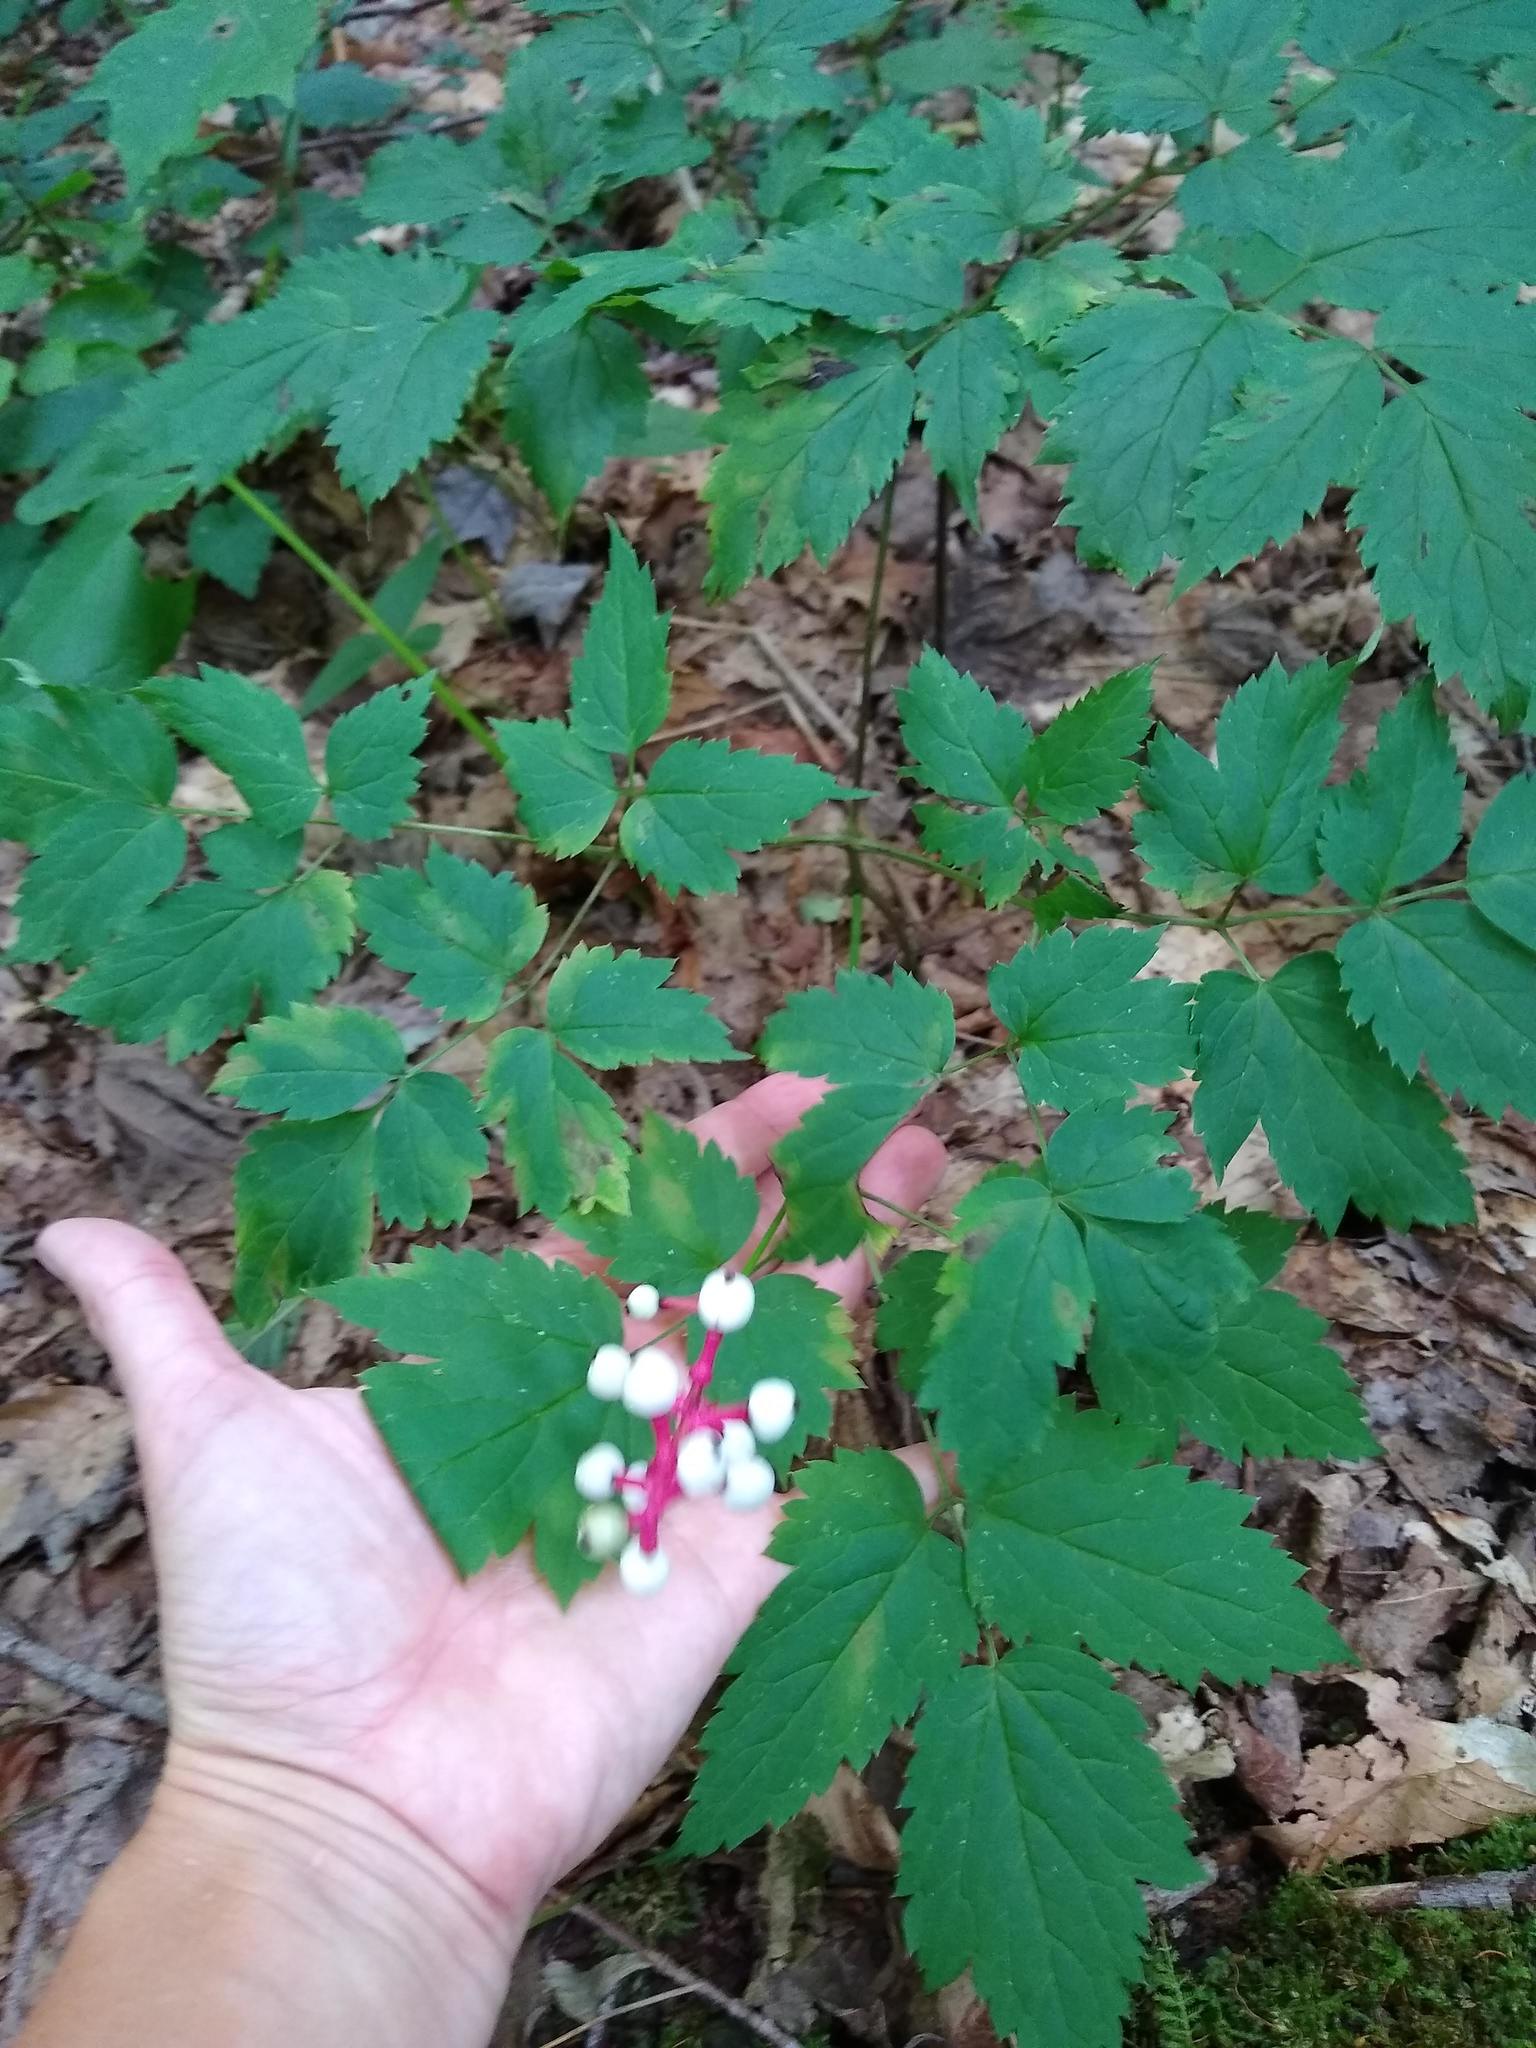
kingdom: Plantae
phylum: Tracheophyta
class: Magnoliopsida
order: Ranunculales
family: Ranunculaceae
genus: Actaea
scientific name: Actaea pachypoda
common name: Doll's-eyes
